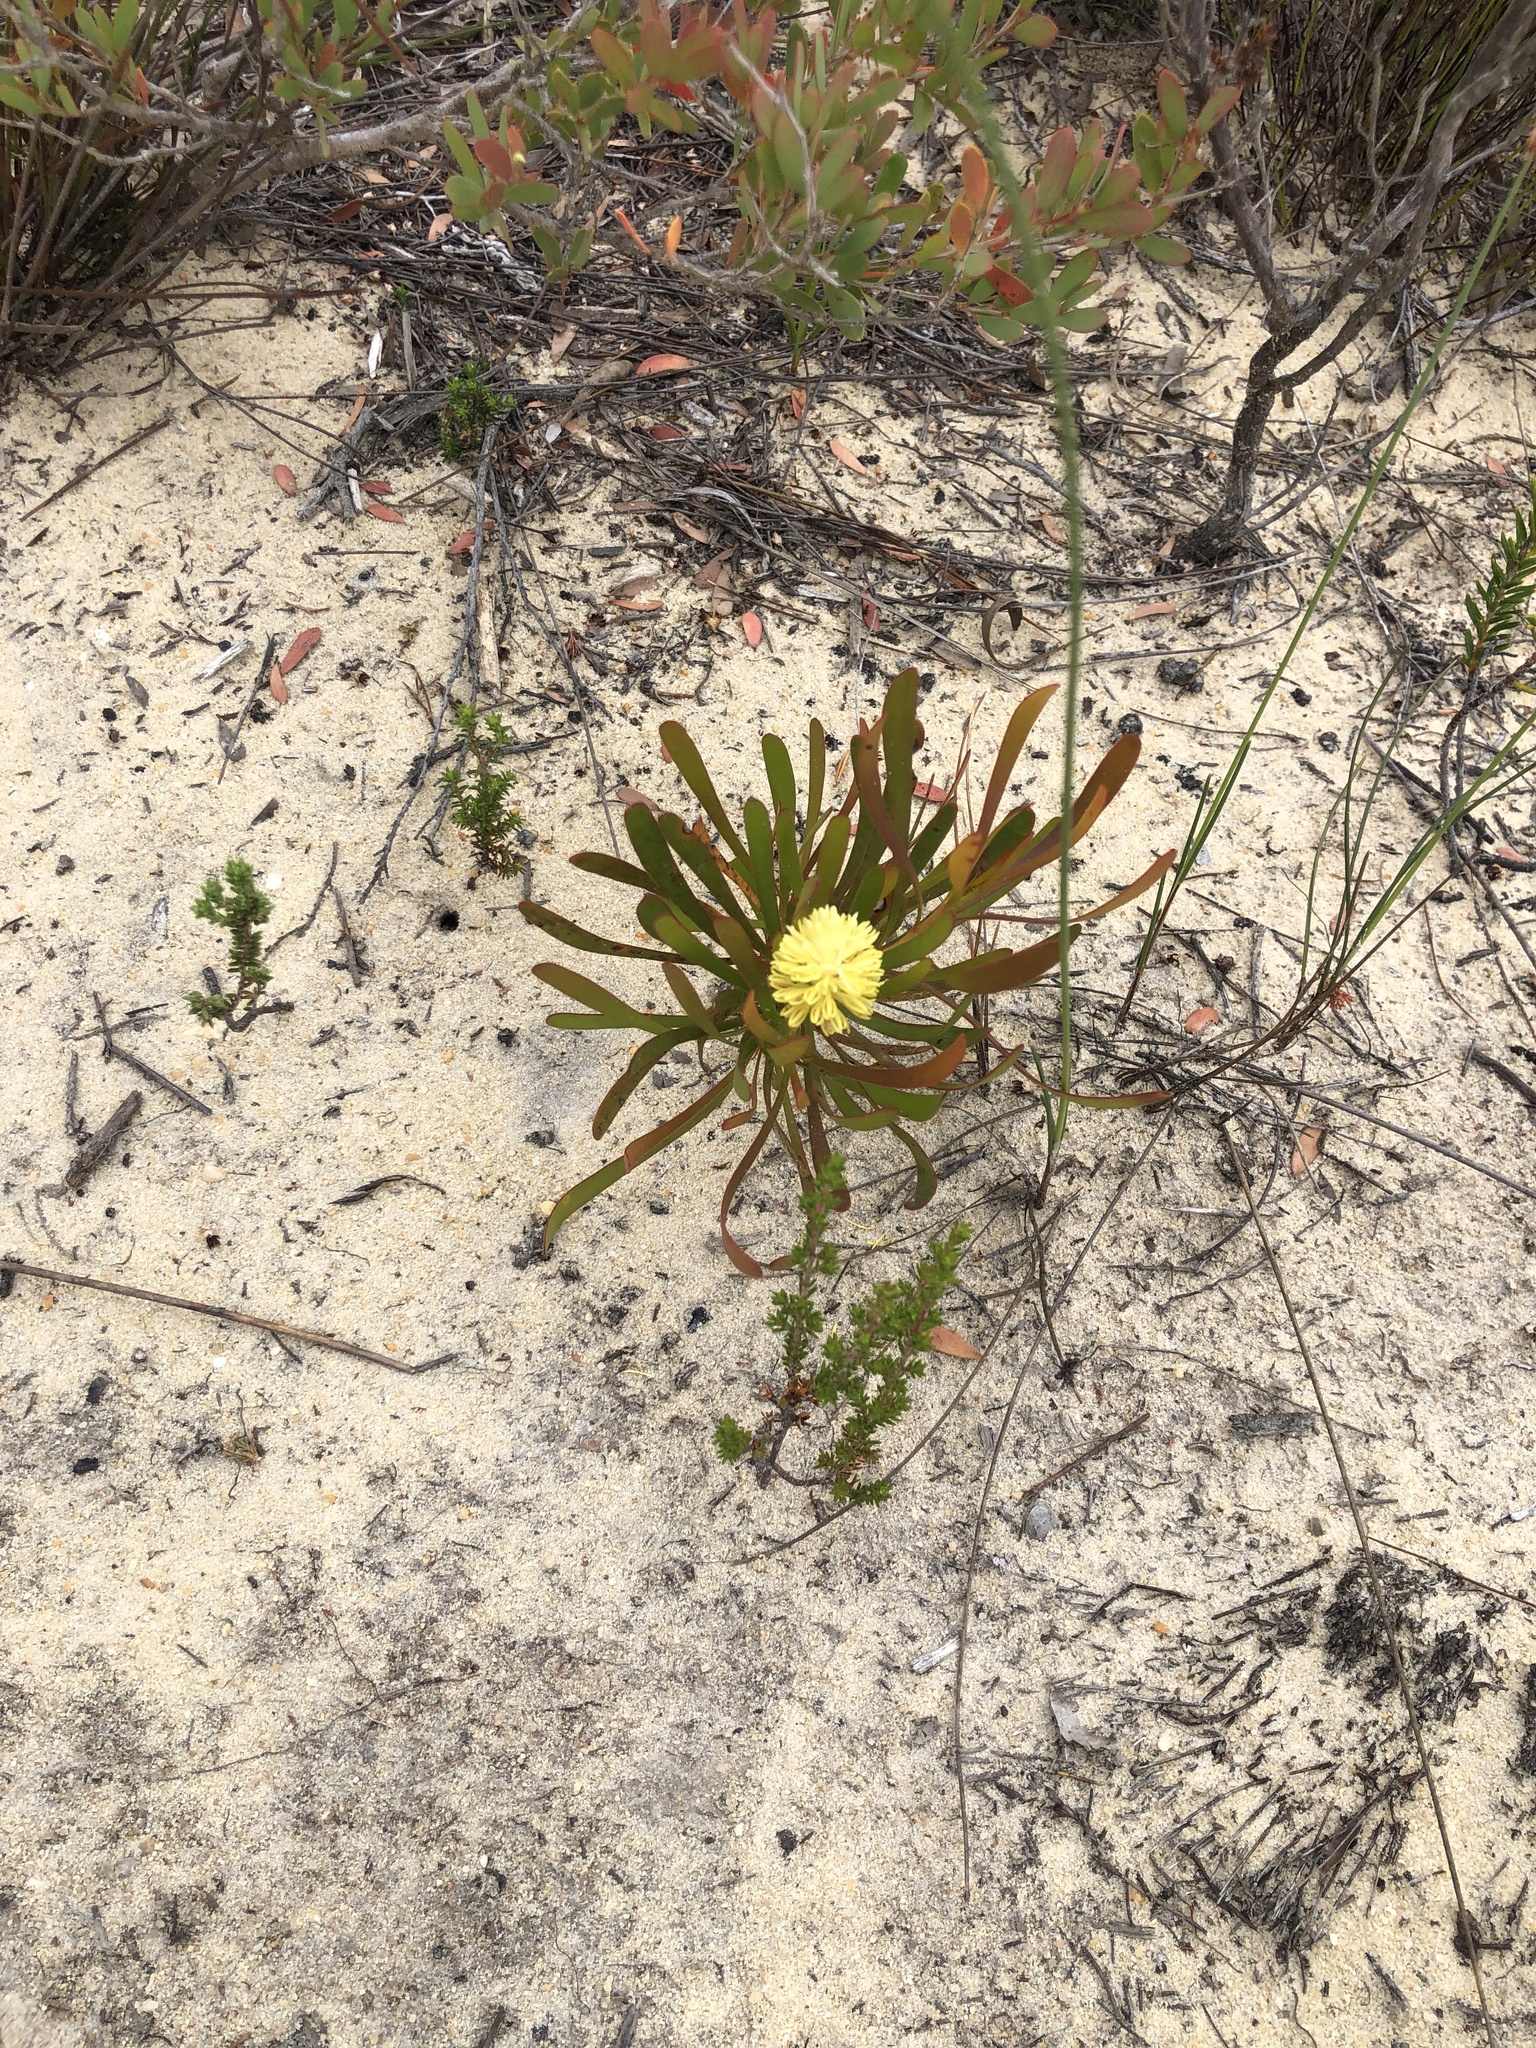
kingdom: Plantae
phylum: Tracheophyta
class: Magnoliopsida
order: Proteales
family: Proteaceae
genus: Aulax
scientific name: Aulax umbellata
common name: Broad-leaf featherbush
